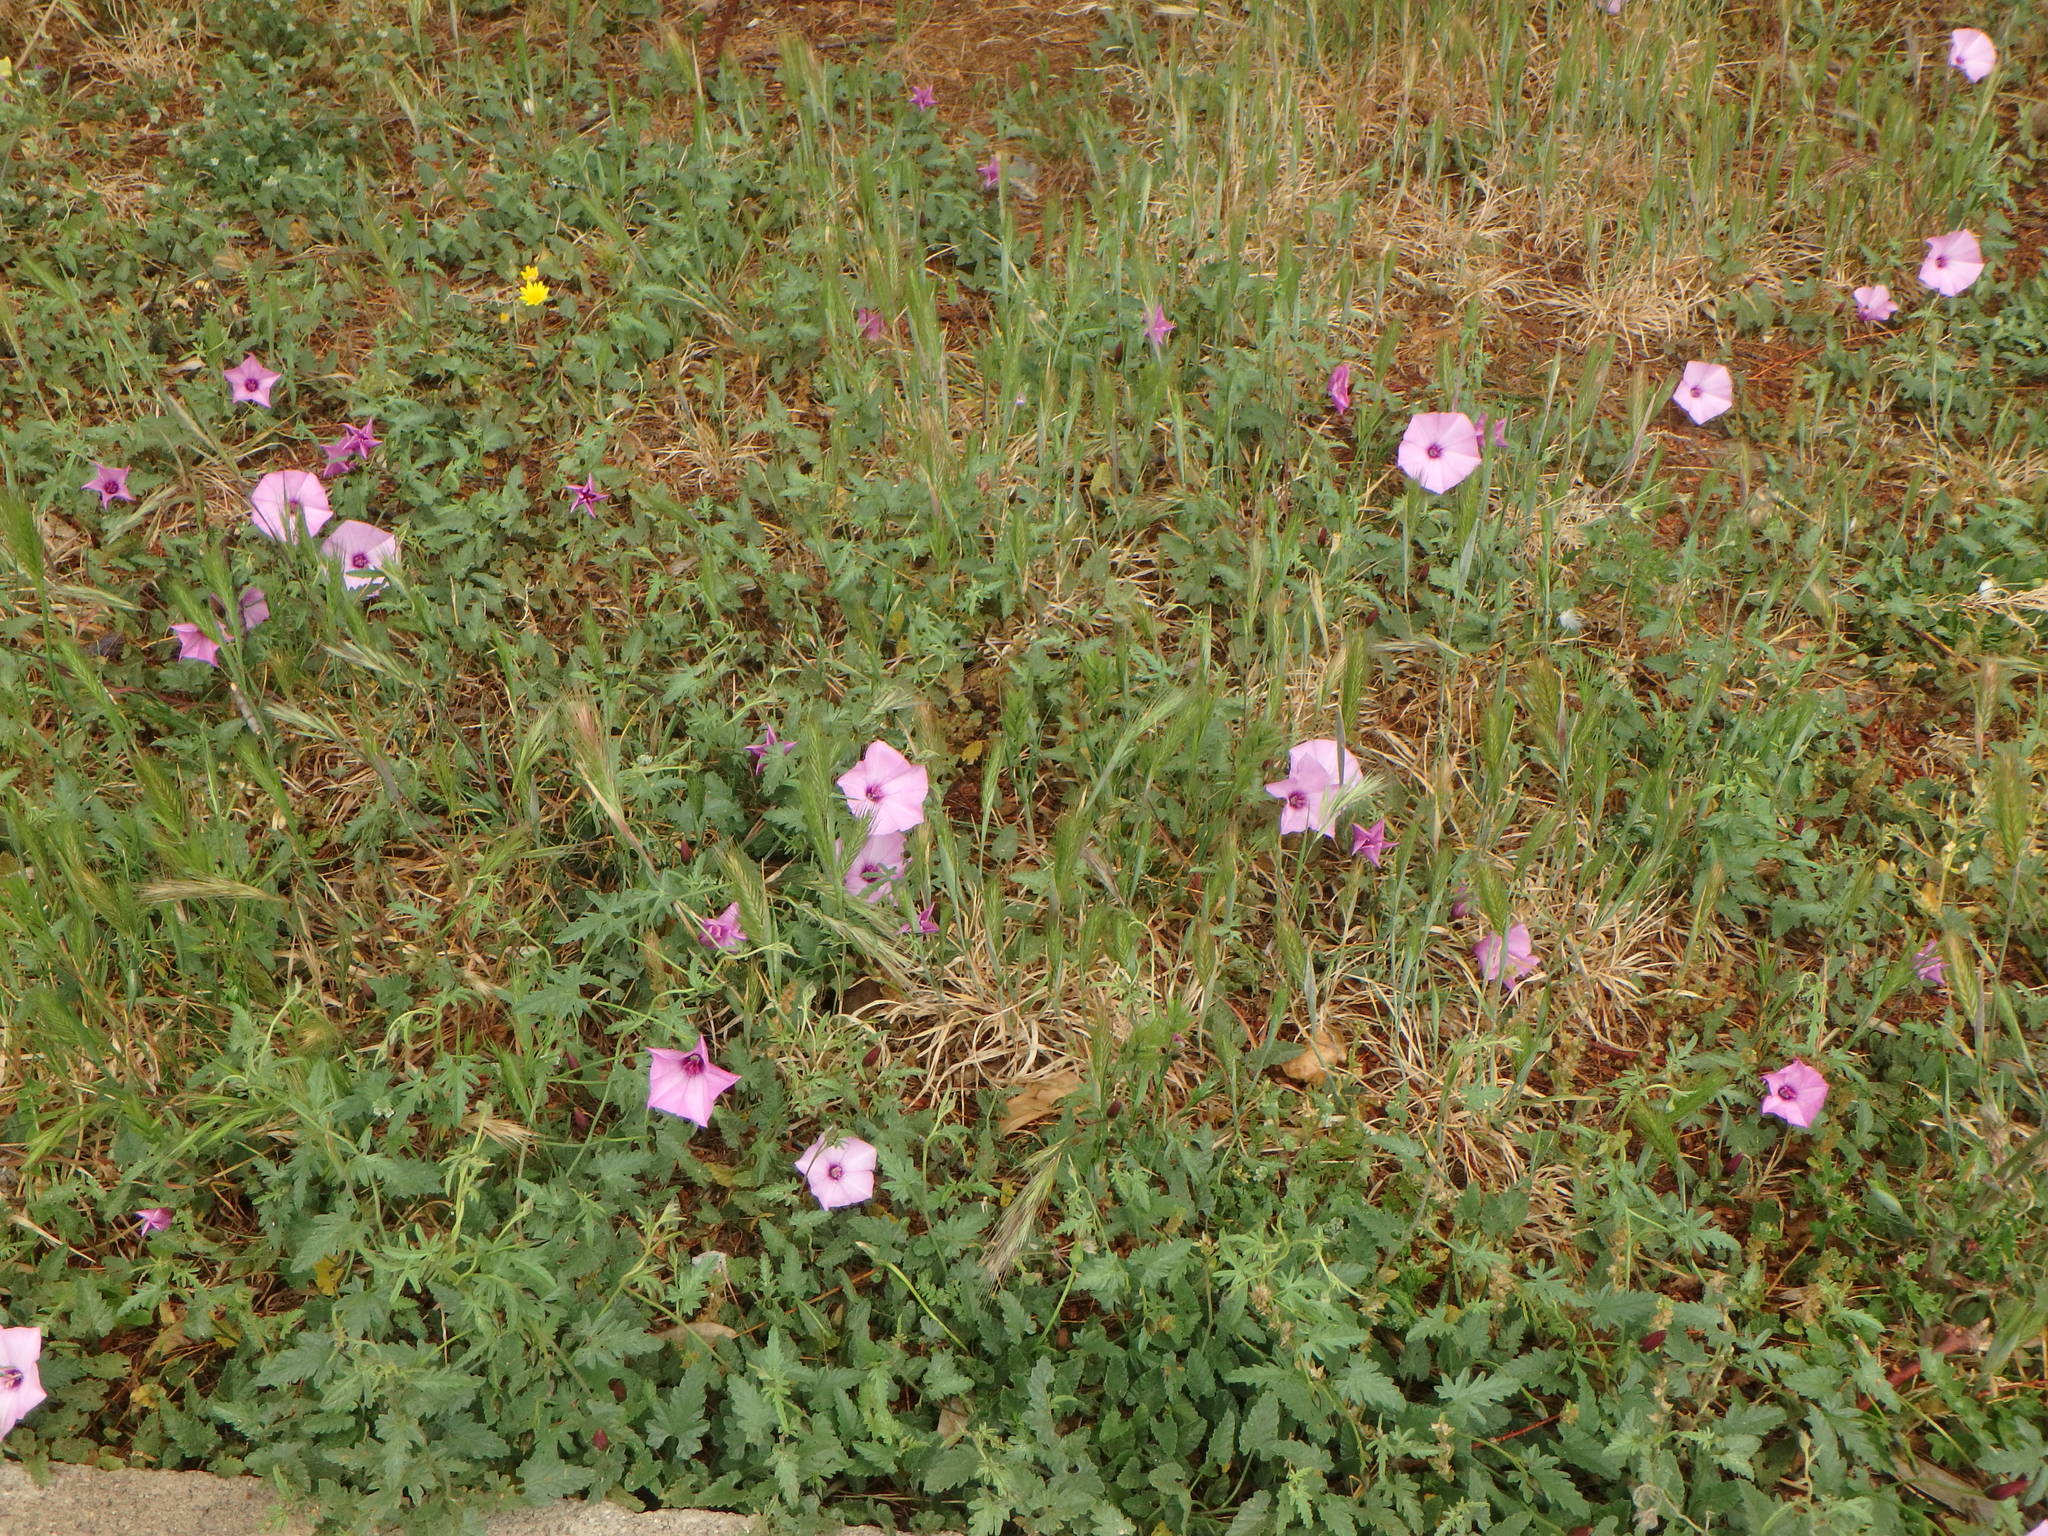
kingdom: Plantae
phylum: Tracheophyta
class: Magnoliopsida
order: Solanales
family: Convolvulaceae
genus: Convolvulus
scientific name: Convolvulus althaeoides
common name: Mallow bindweed
